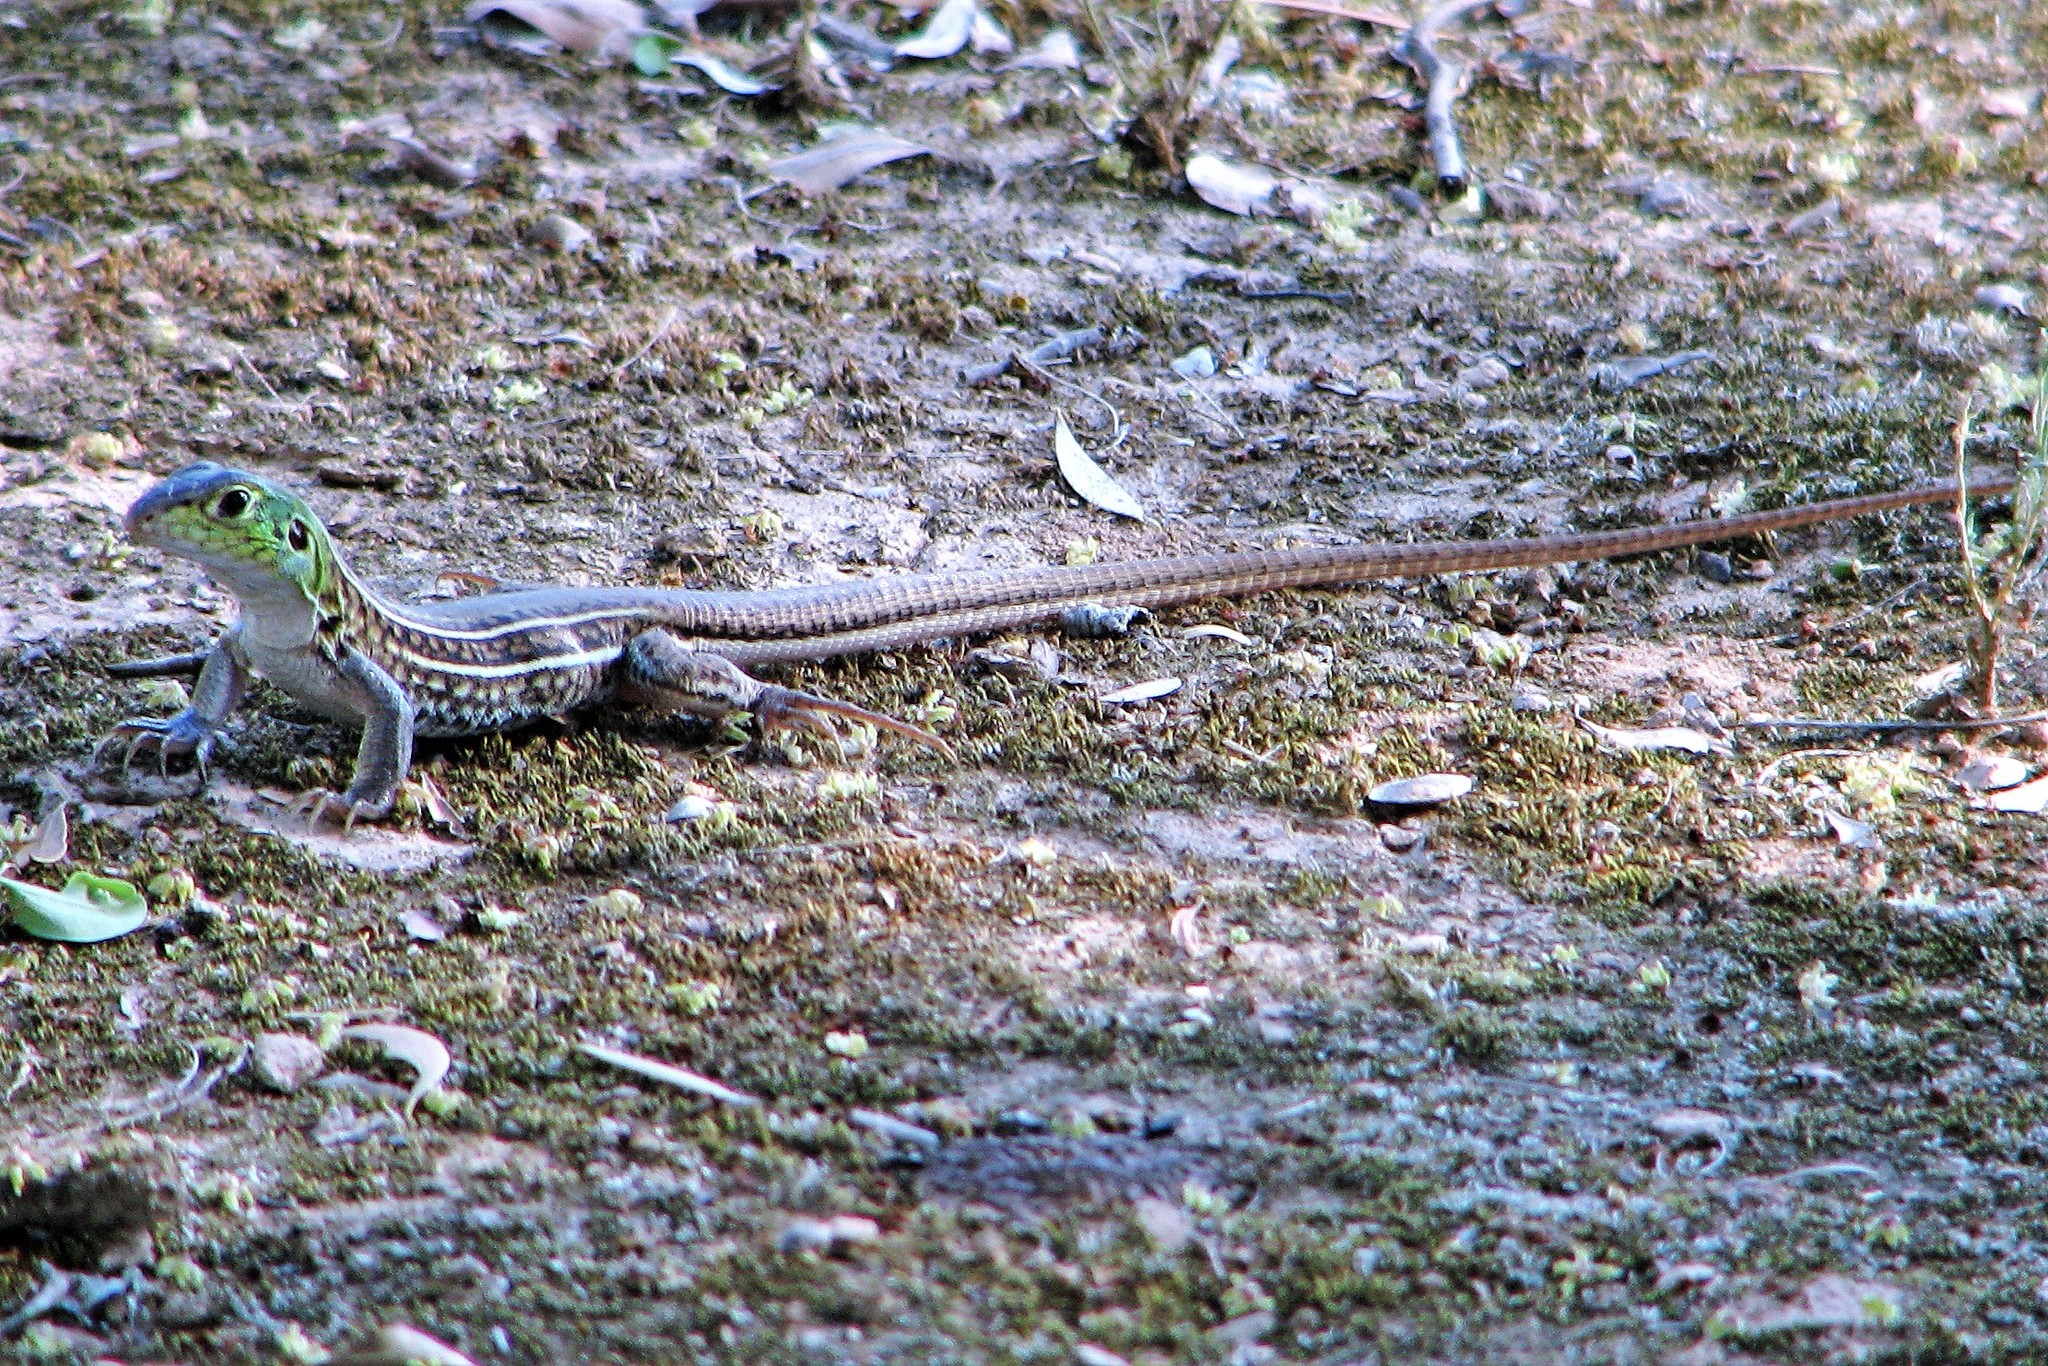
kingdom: Animalia
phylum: Chordata
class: Squamata
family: Teiidae
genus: Teius
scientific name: Teius teyou
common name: Four-toed tegu
